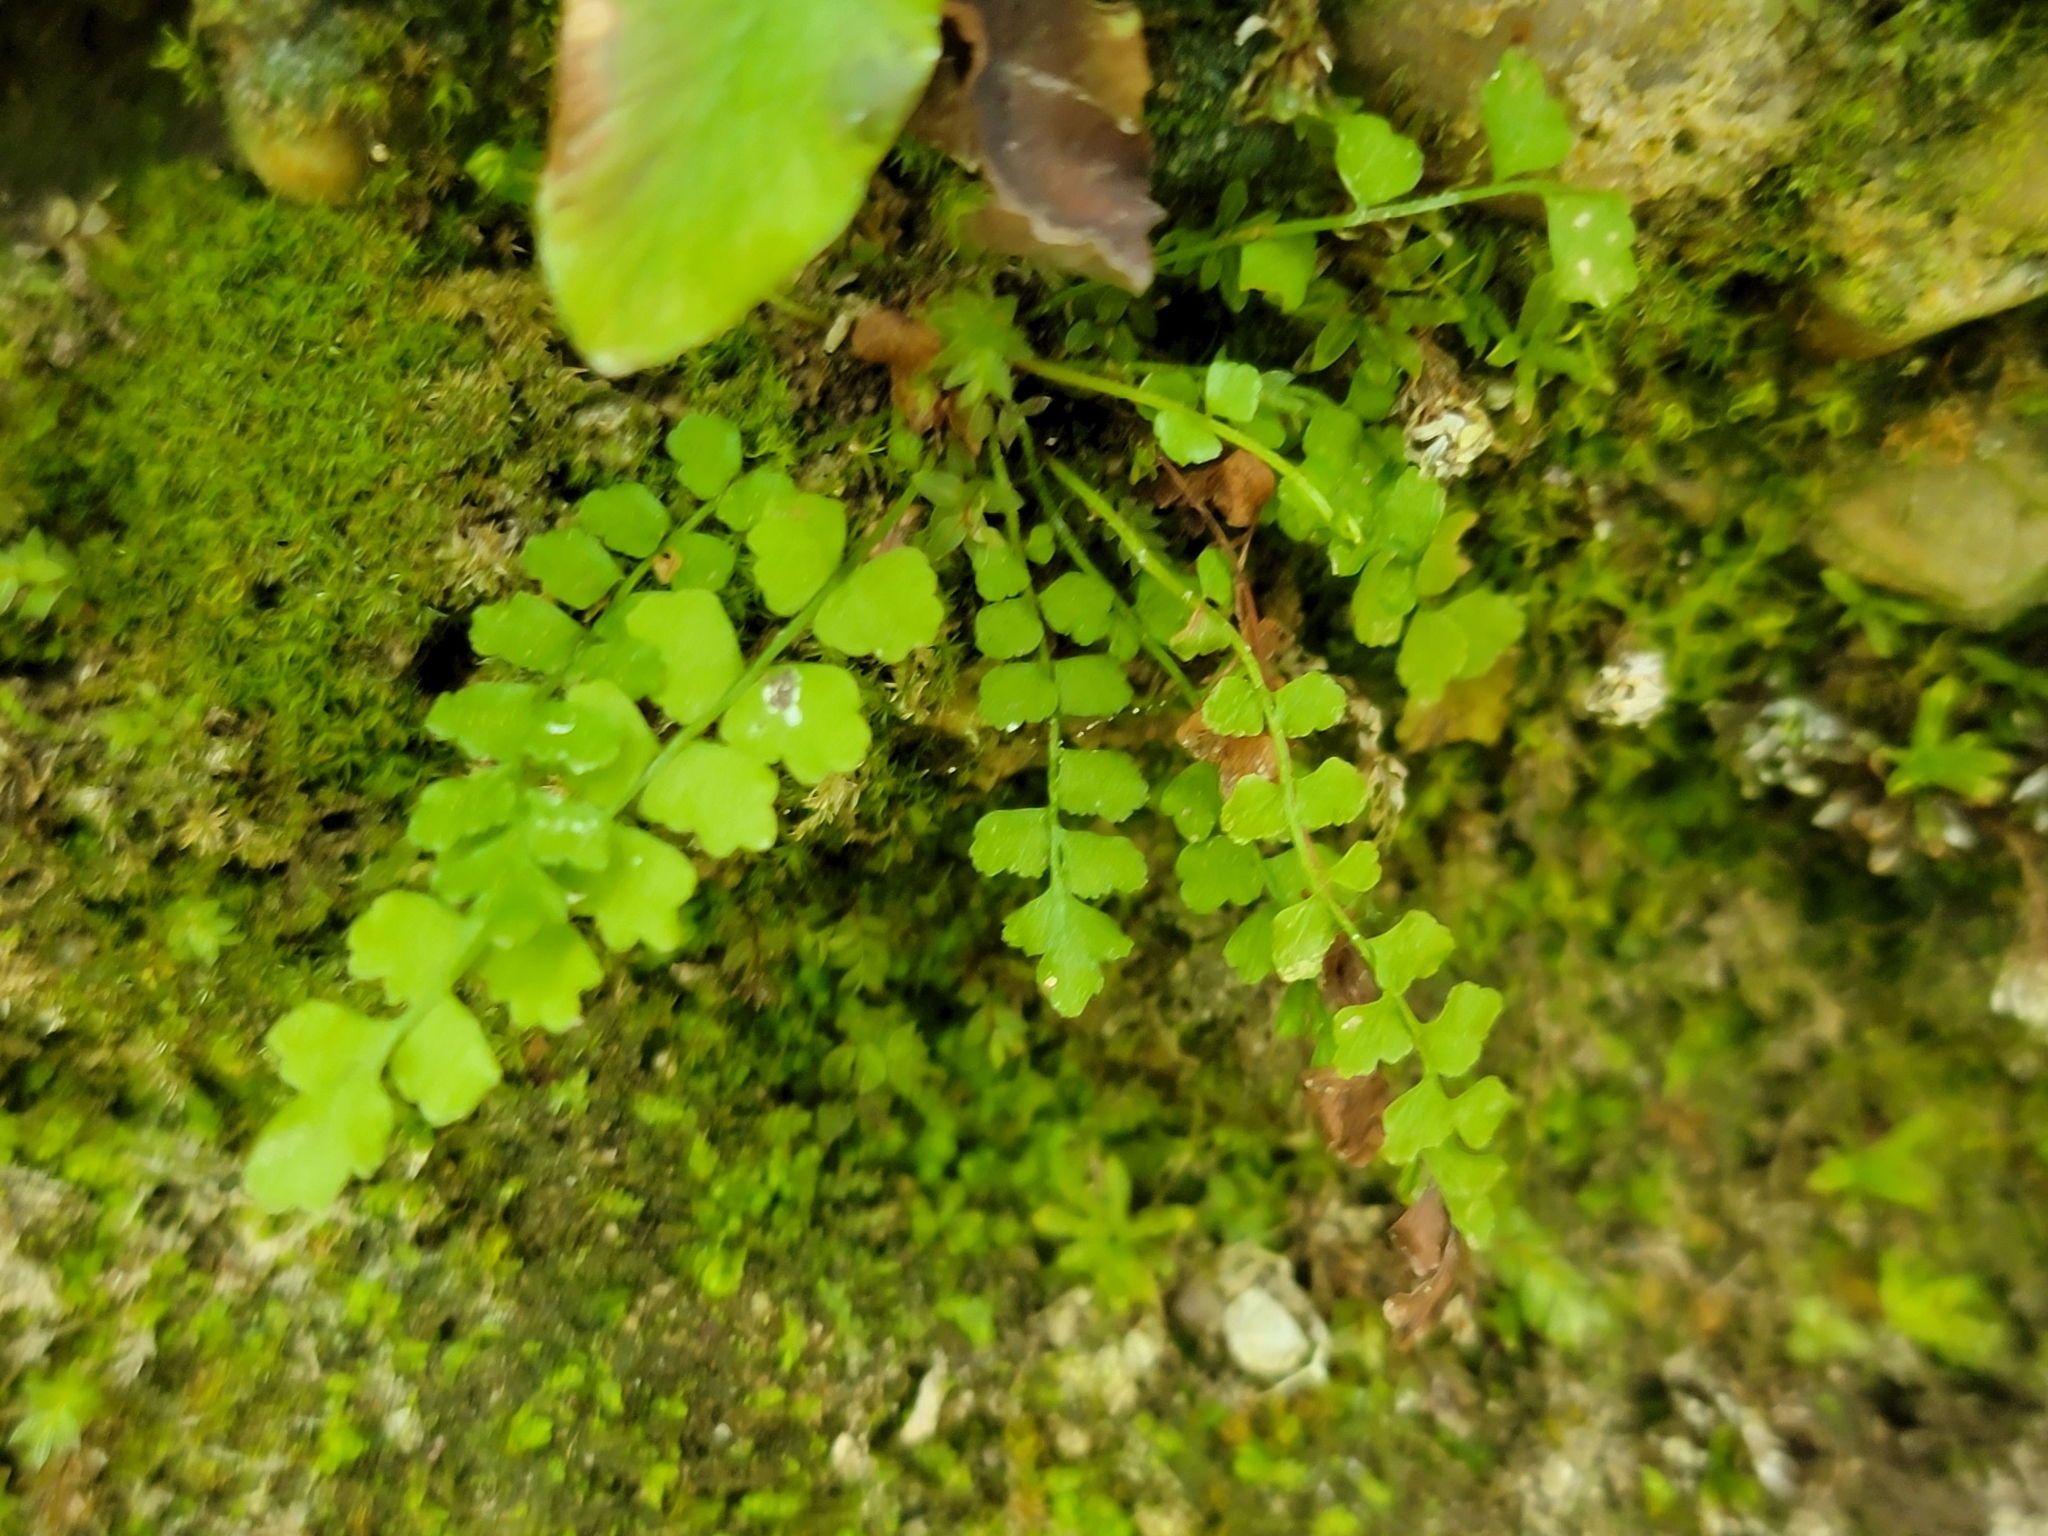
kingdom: Plantae
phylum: Tracheophyta
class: Polypodiopsida
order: Polypodiales
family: Aspleniaceae
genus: Asplenium
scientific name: Asplenium viride
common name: Green spleenwort
